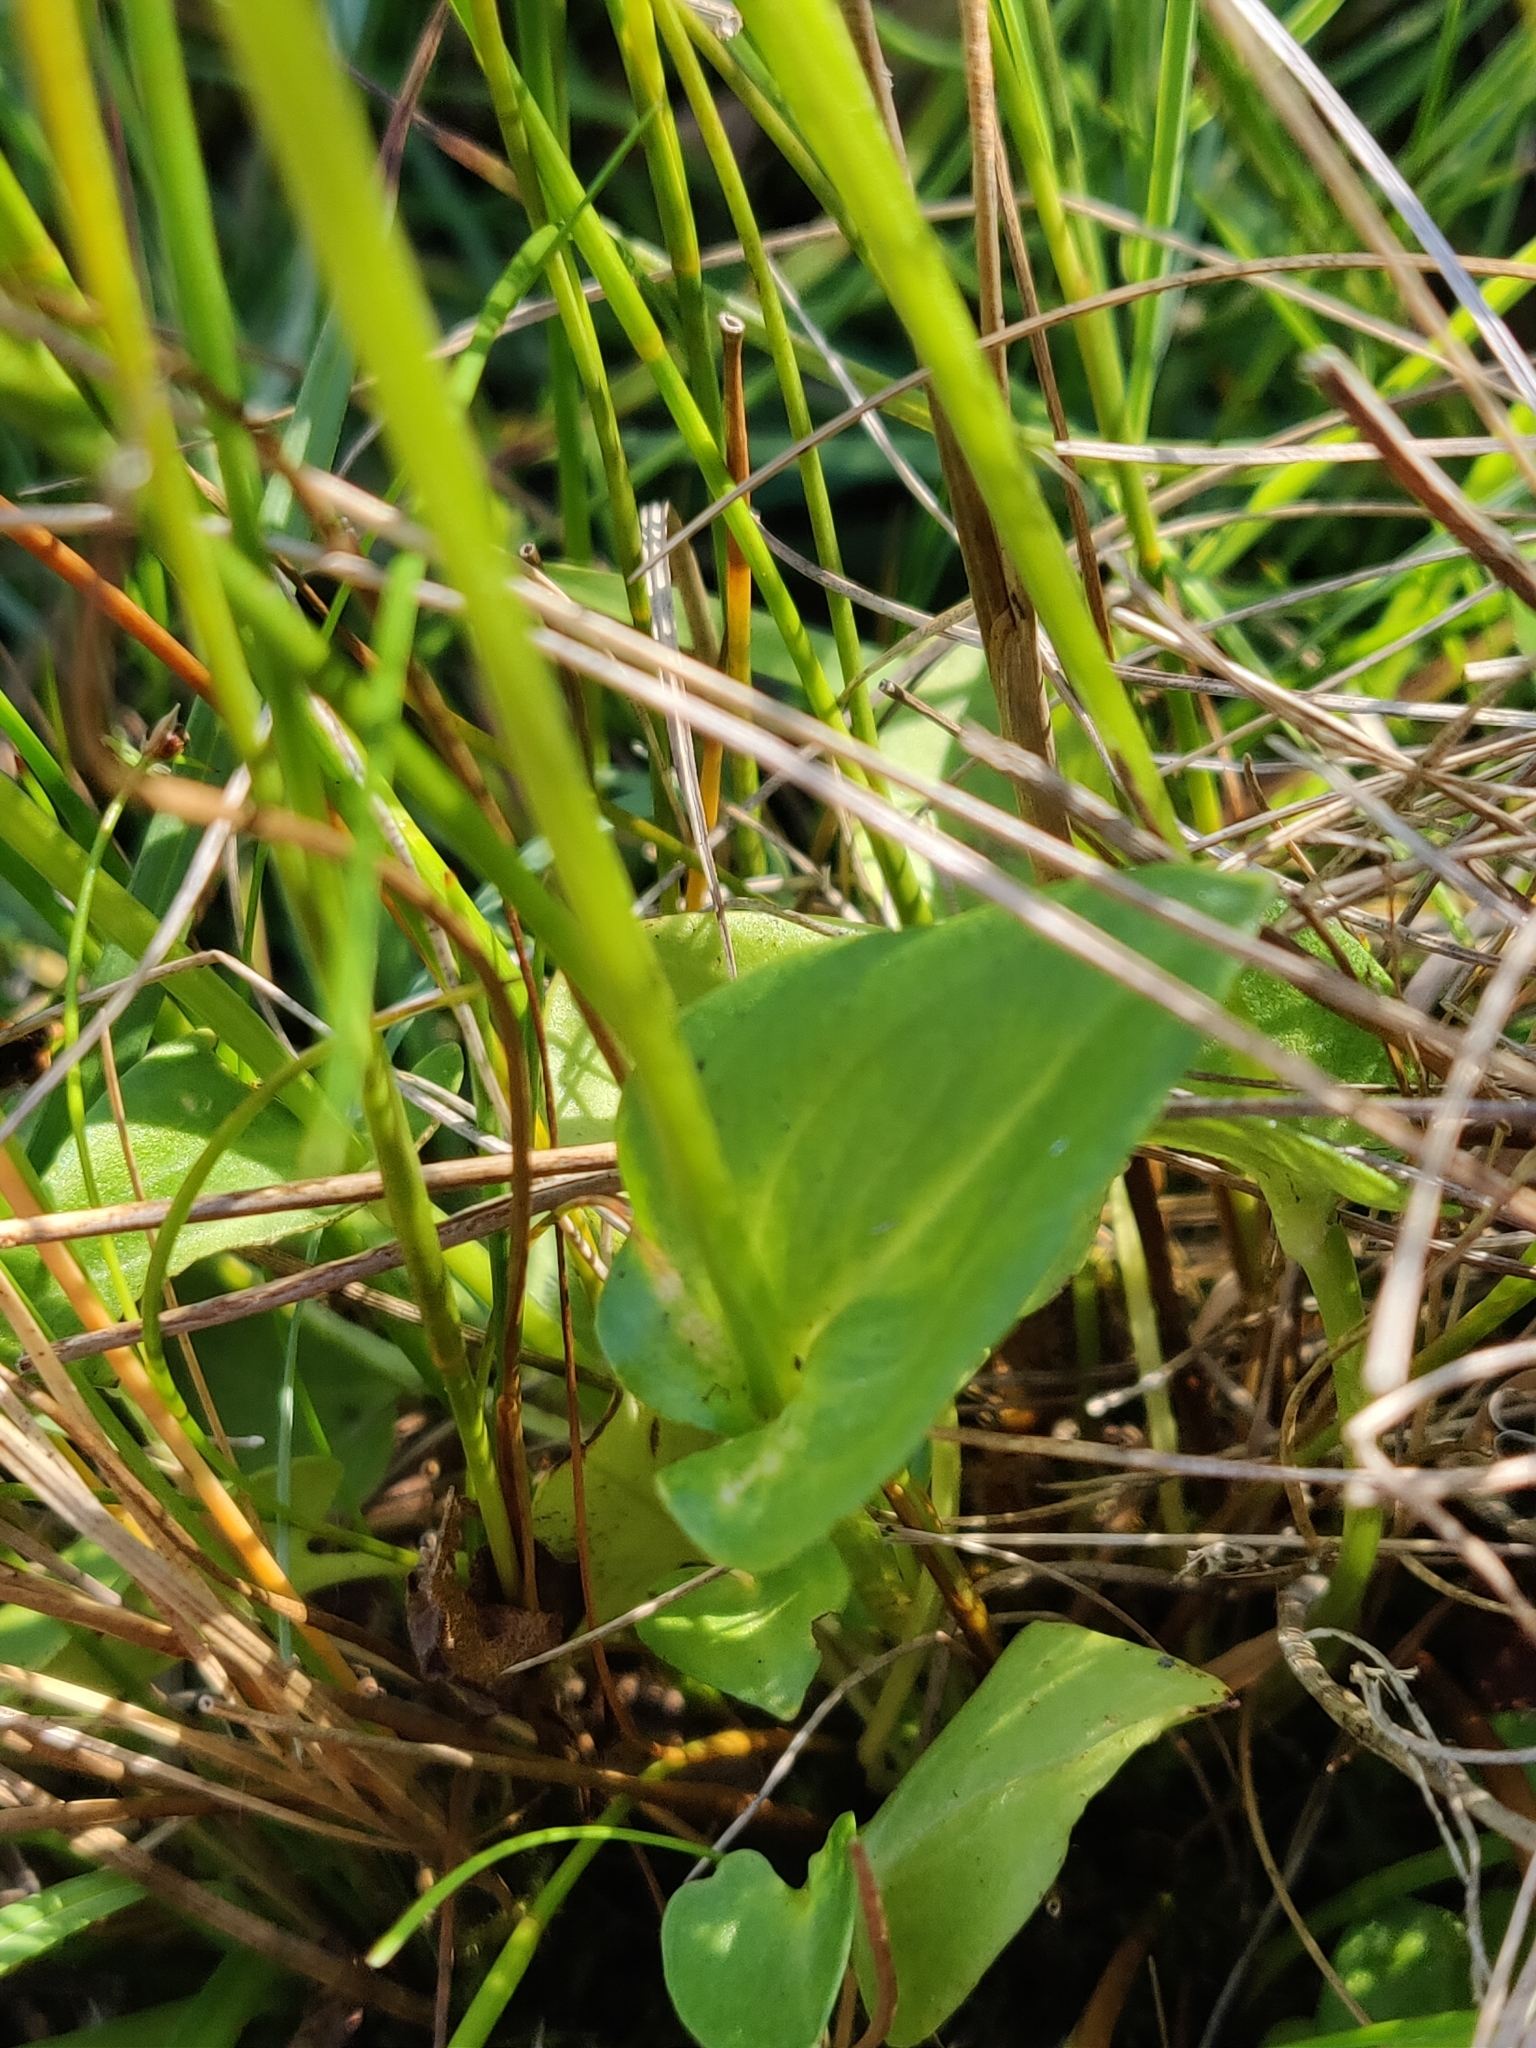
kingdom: Plantae
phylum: Tracheophyta
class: Magnoliopsida
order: Celastrales
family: Parnassiaceae
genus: Parnassia
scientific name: Parnassia palustris
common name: Grass-of-parnassus
